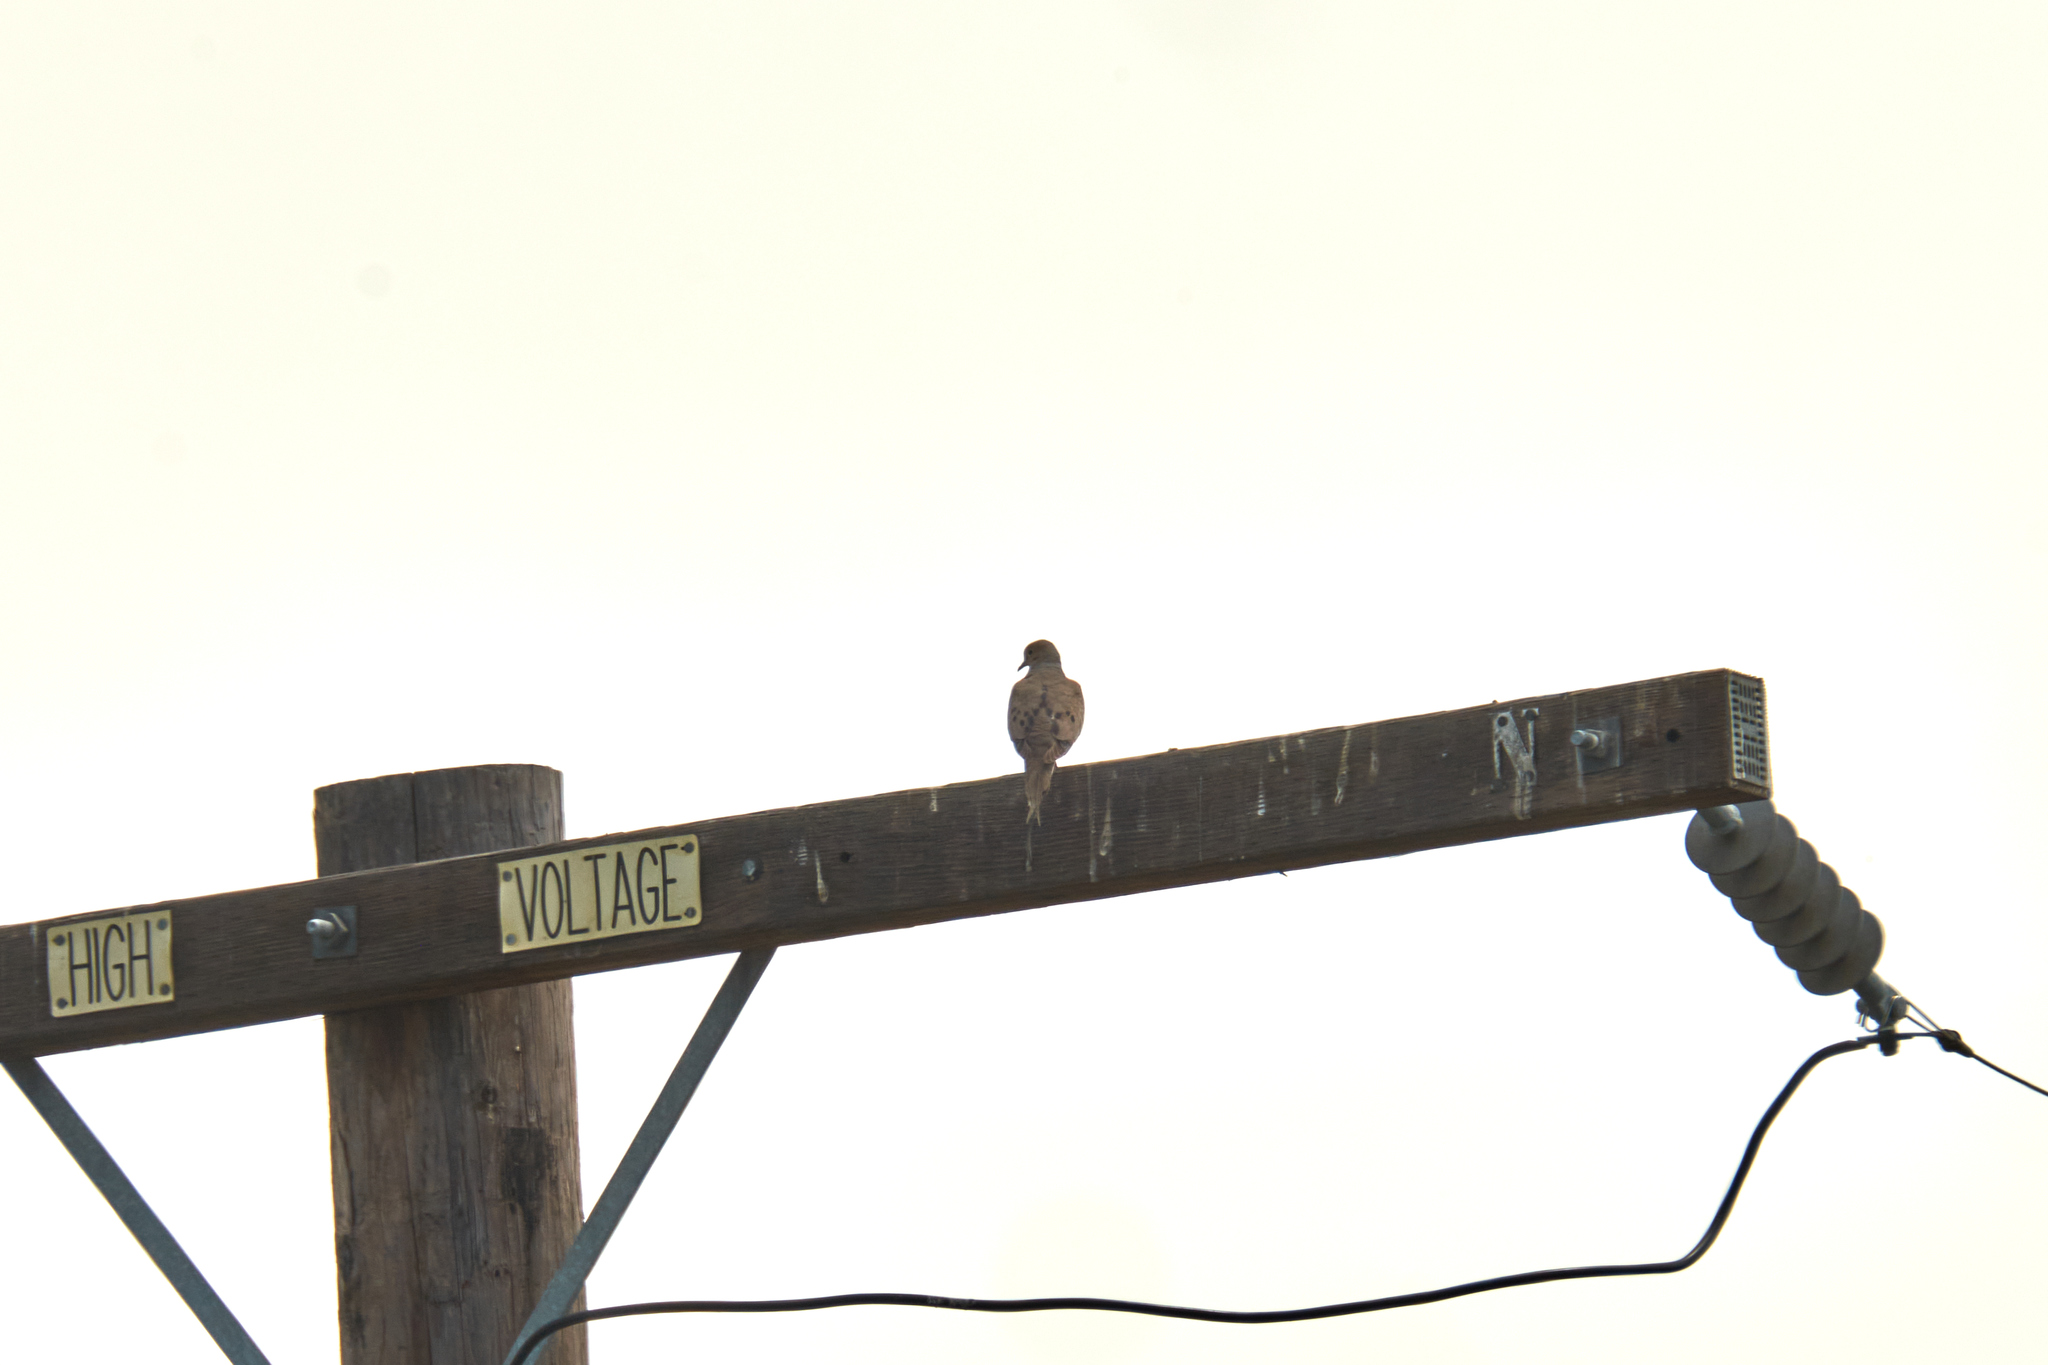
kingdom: Animalia
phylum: Chordata
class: Aves
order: Columbiformes
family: Columbidae
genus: Zenaida
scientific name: Zenaida macroura
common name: Mourning dove
